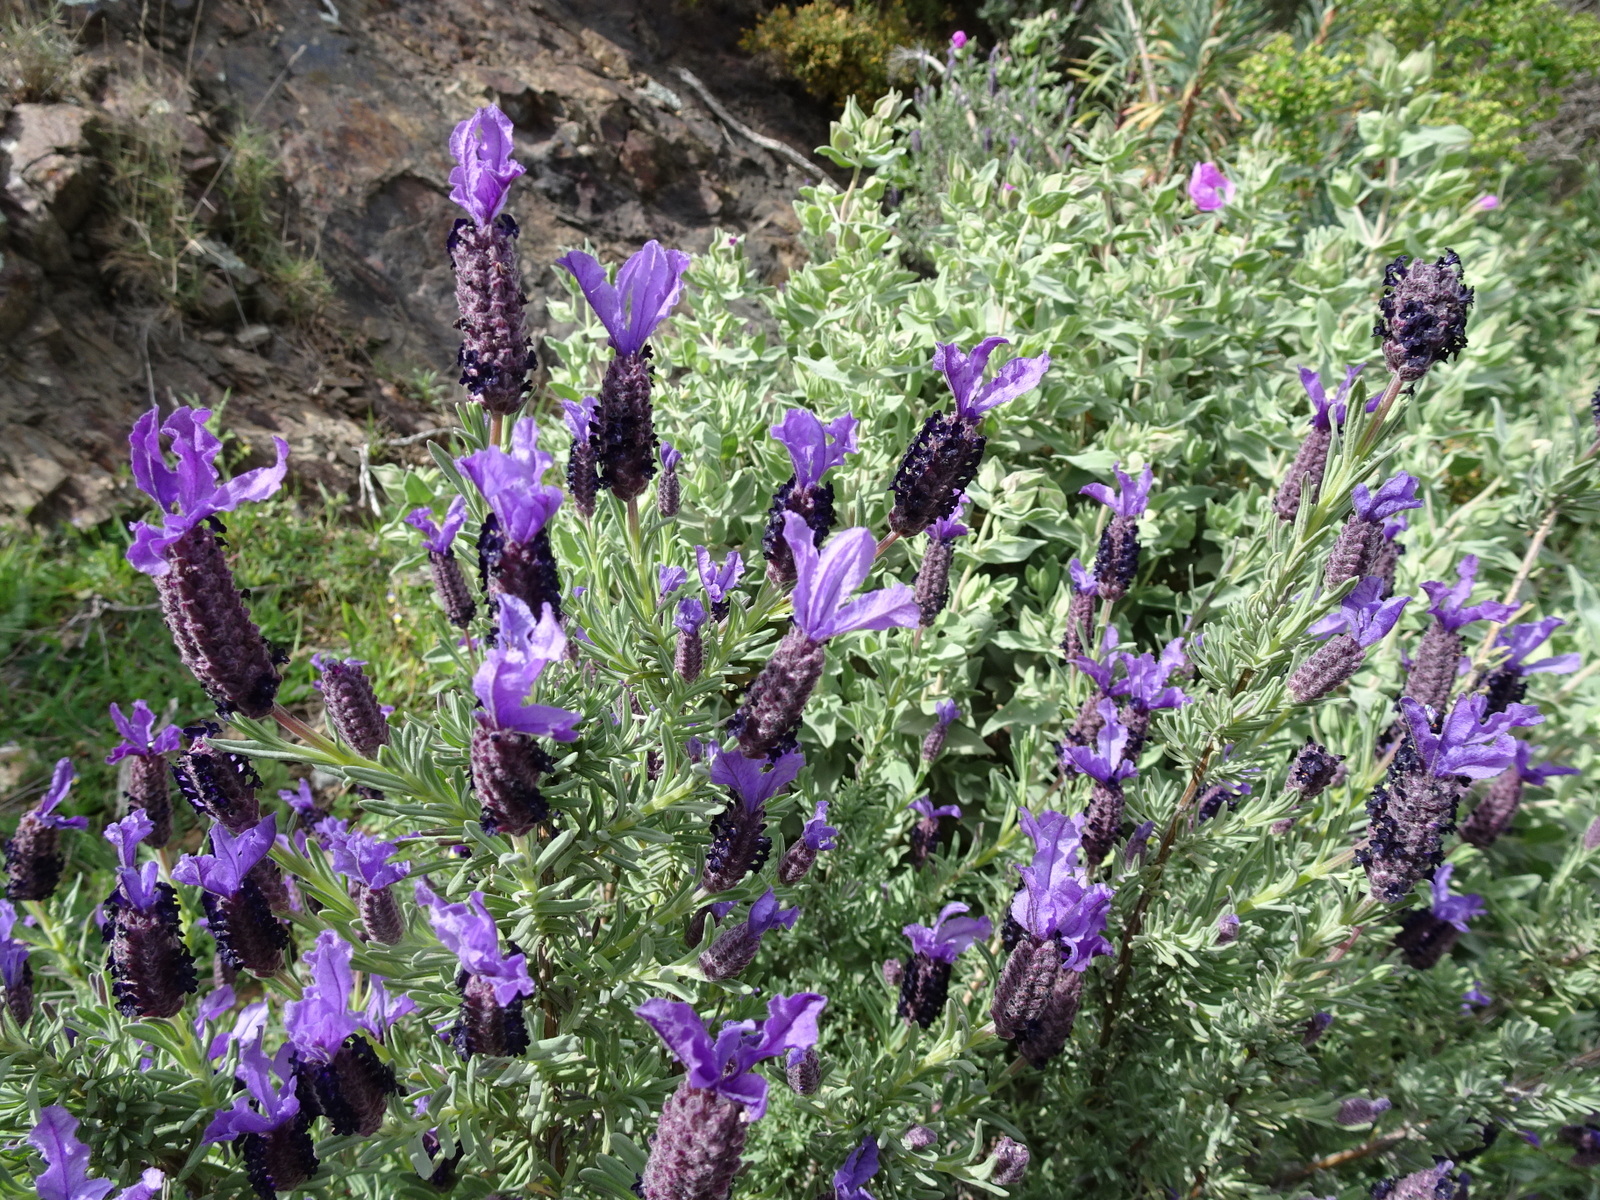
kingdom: Plantae
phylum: Tracheophyta
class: Magnoliopsida
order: Lamiales
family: Lamiaceae
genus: Lavandula
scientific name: Lavandula stoechas
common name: French lavender
